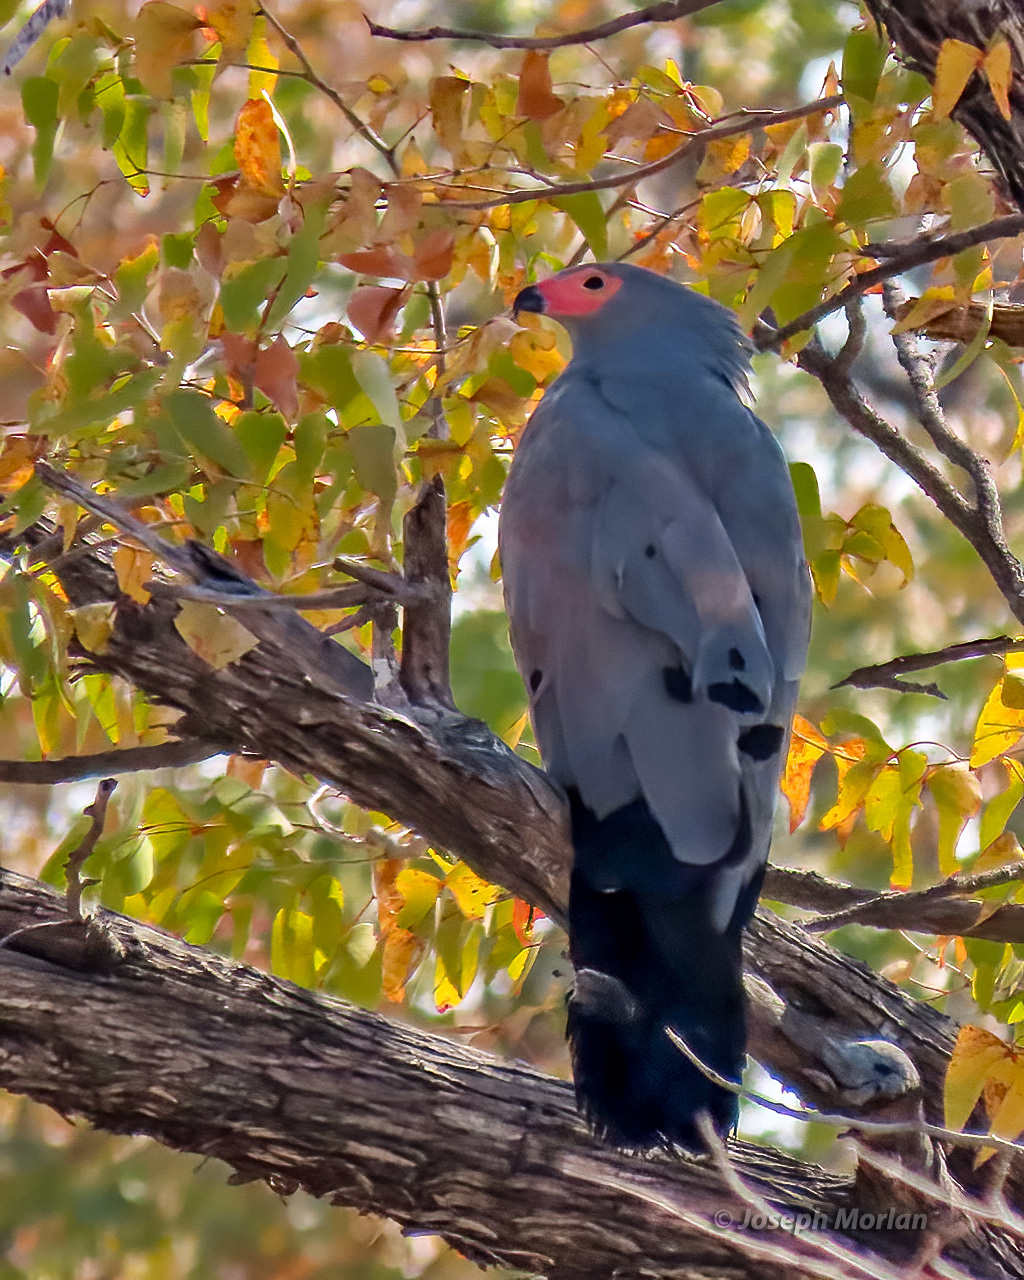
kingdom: Animalia
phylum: Chordata
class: Aves
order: Accipitriformes
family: Accipitridae
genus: Polyboroides
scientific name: Polyboroides typus
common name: African harrier-hawk
